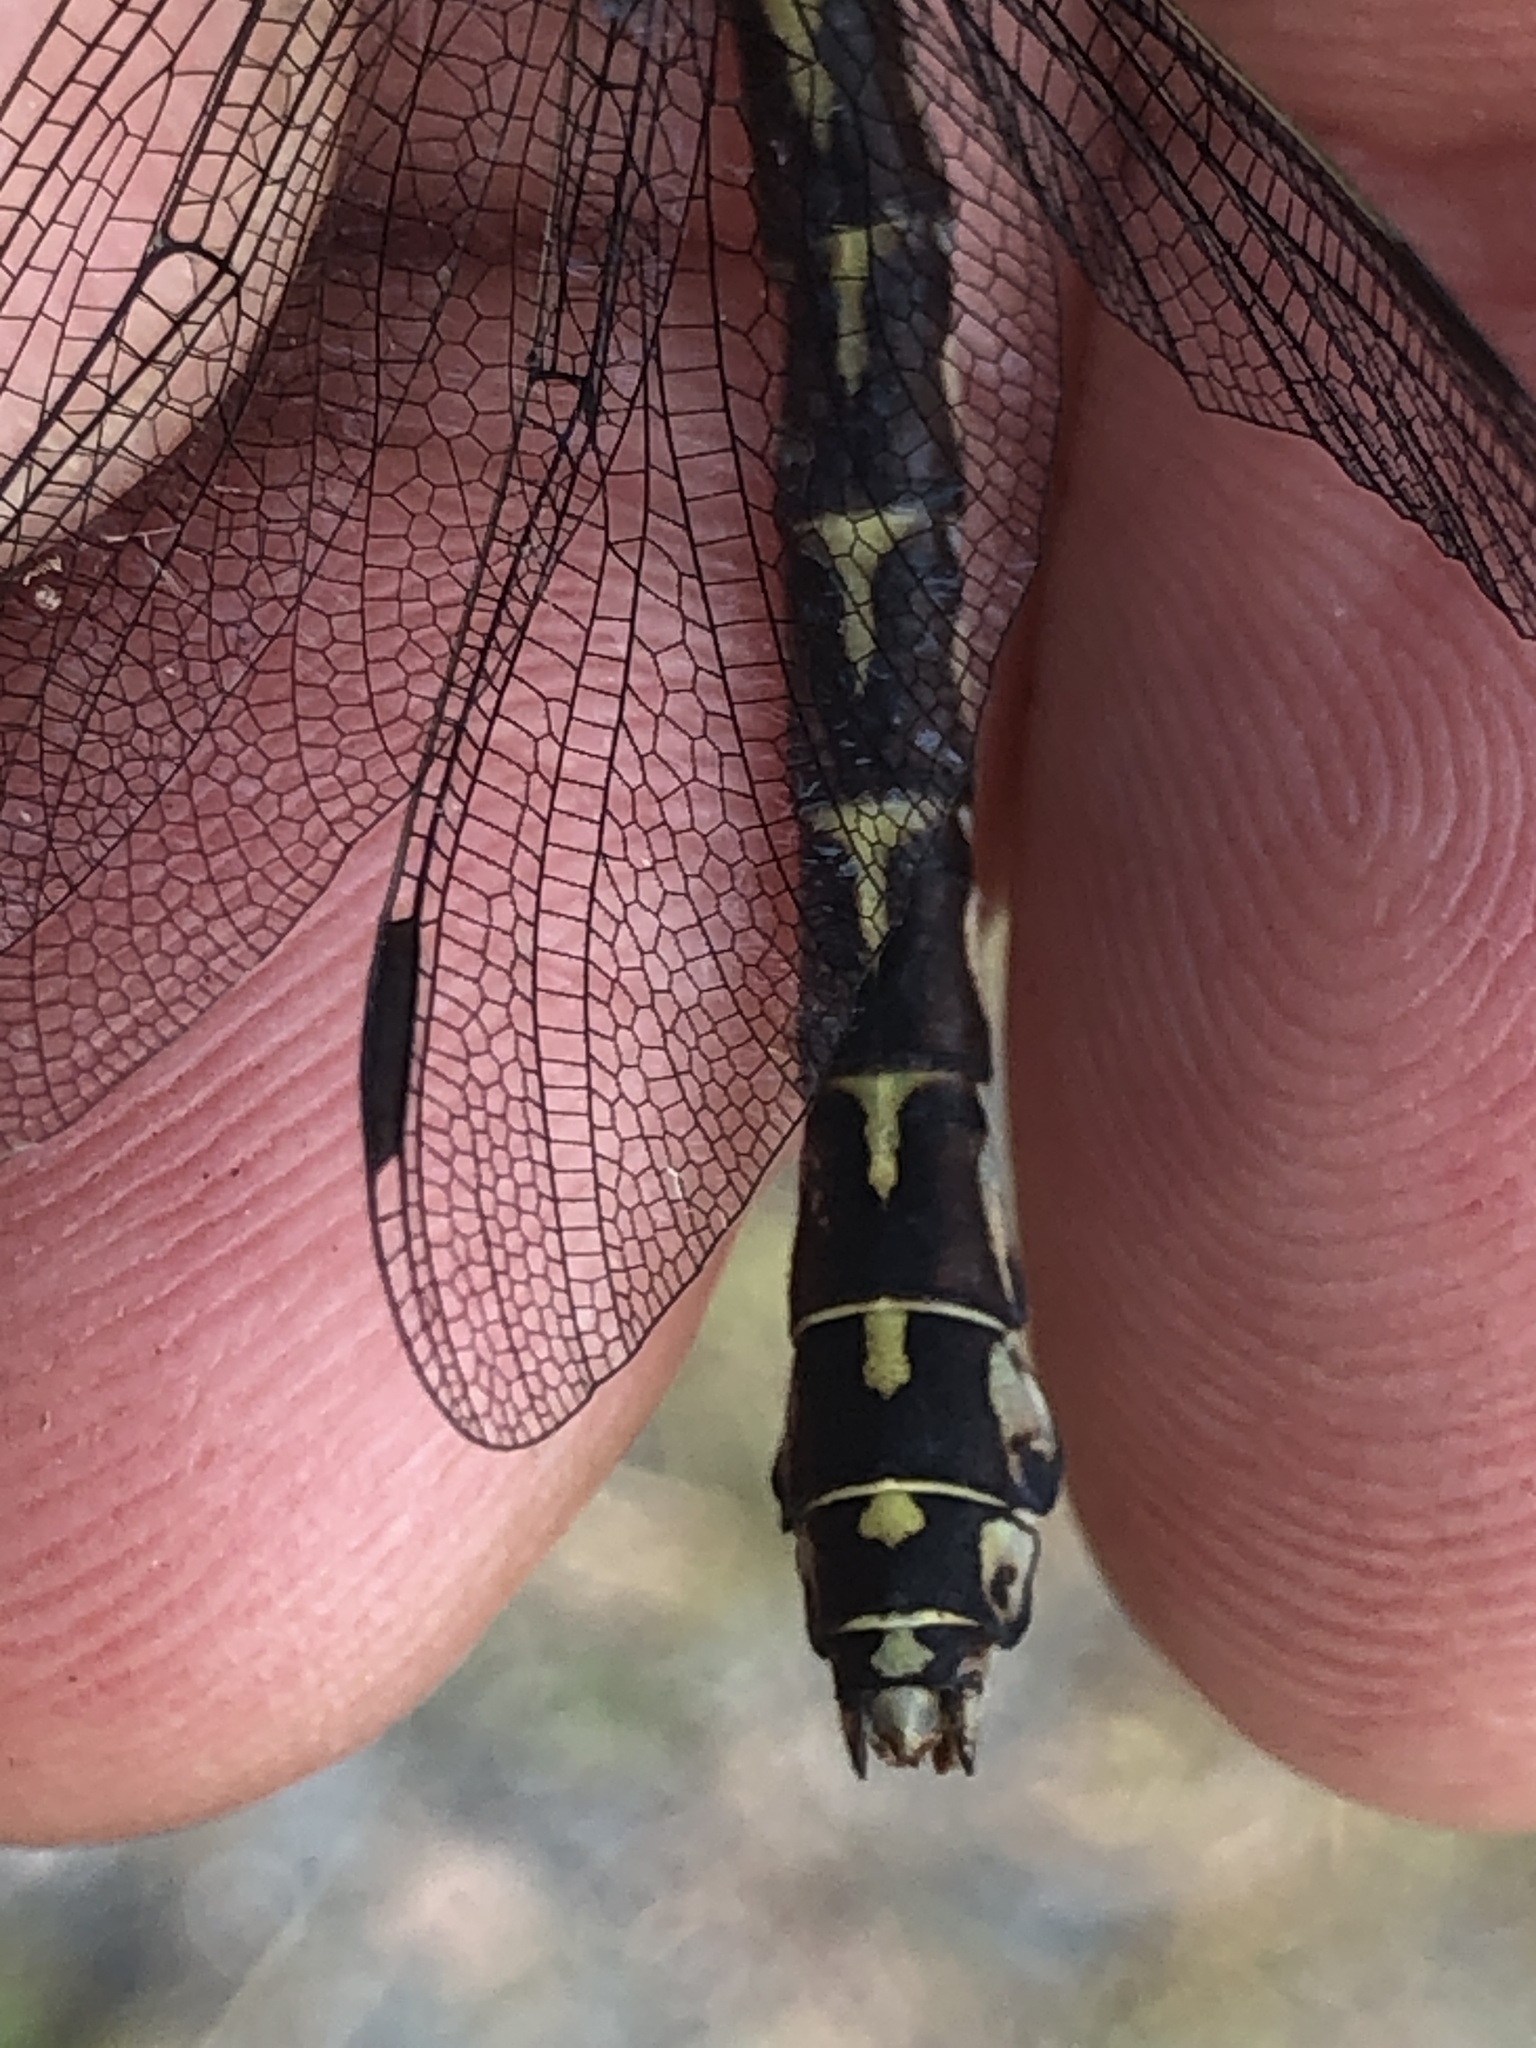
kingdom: Animalia
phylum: Arthropoda
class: Insecta
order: Odonata
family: Gomphidae
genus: Ophiogomphus
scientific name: Ophiogomphus colubrinus
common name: Boreal snaketail
